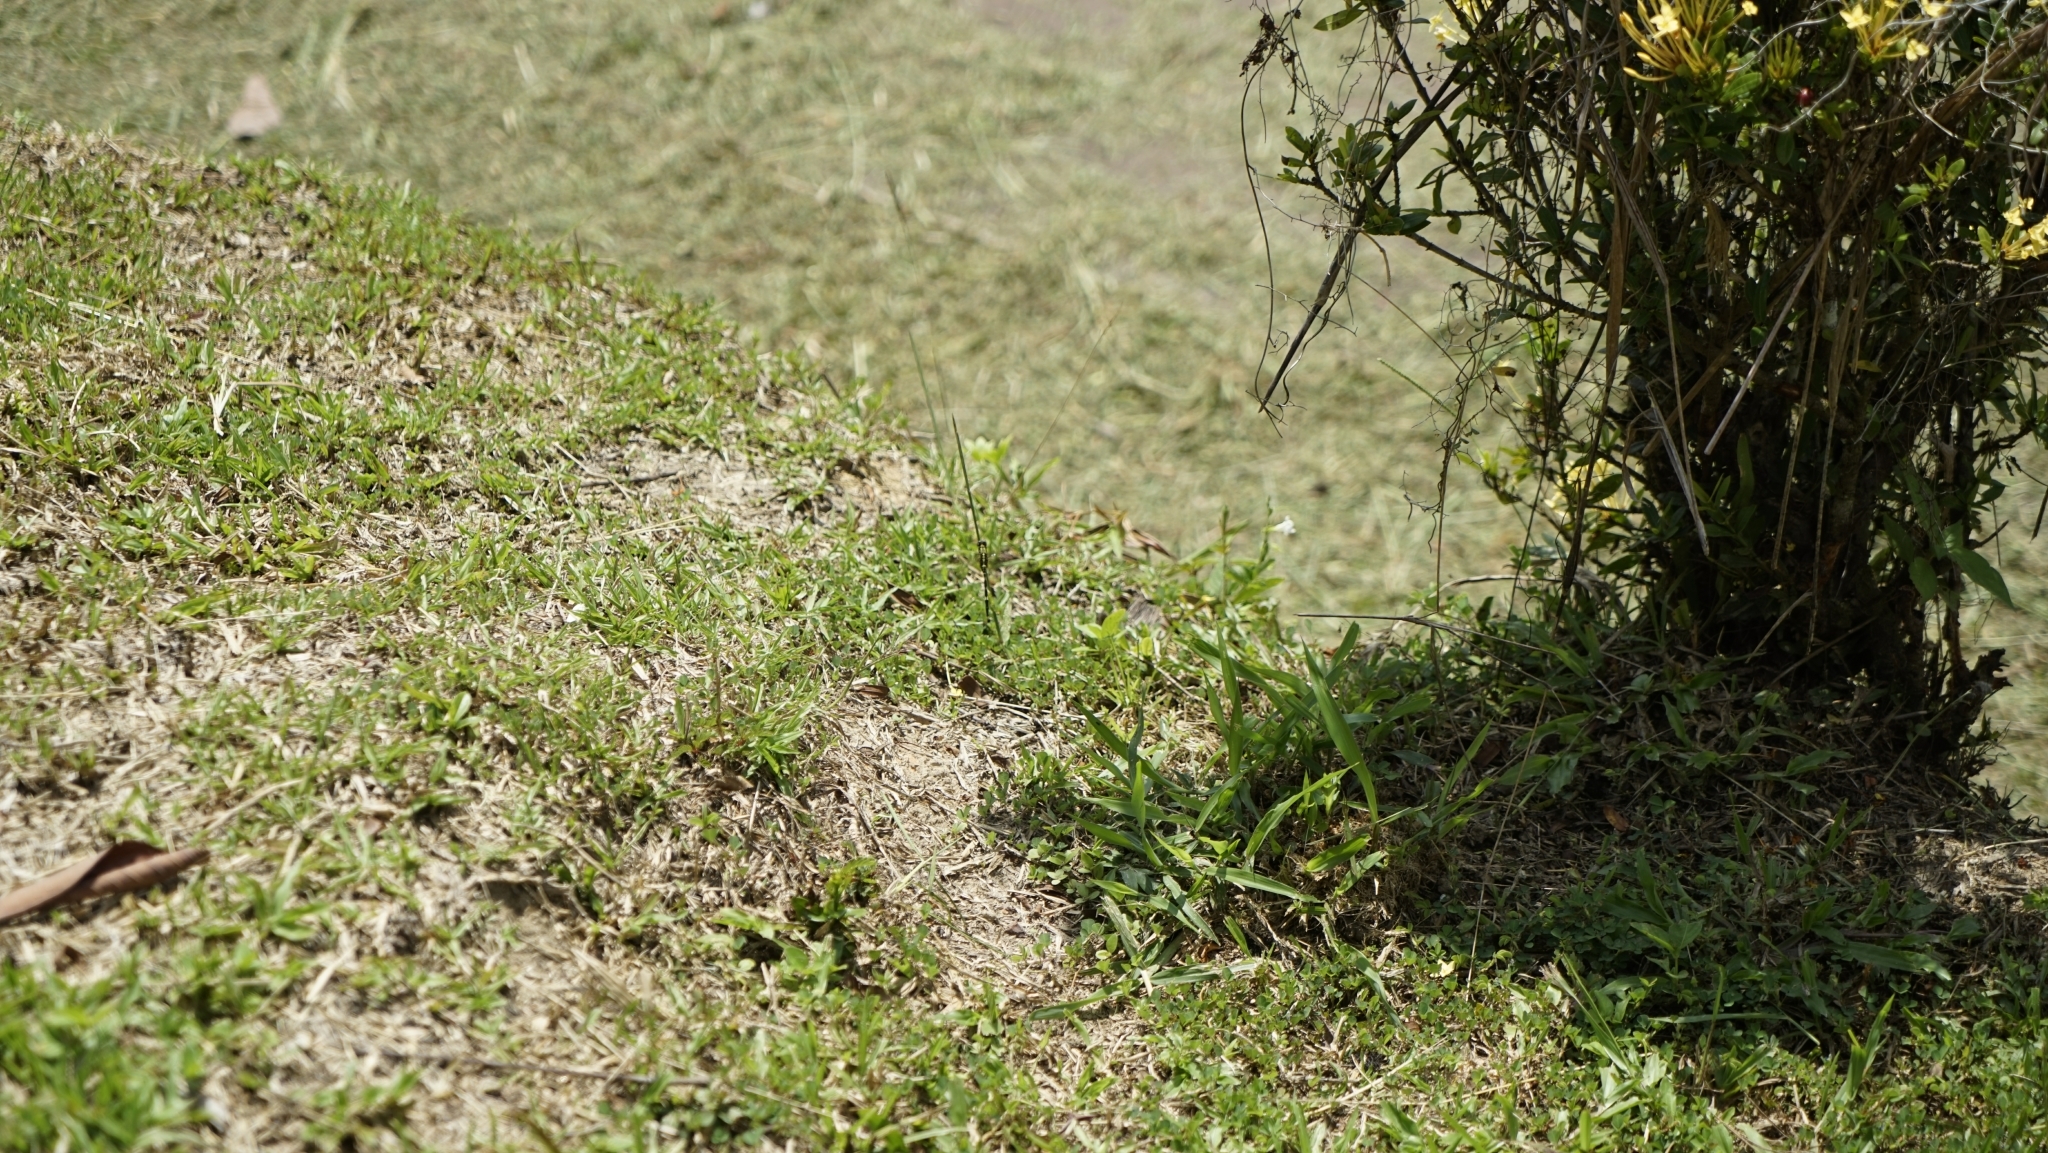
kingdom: Animalia
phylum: Arthropoda
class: Insecta
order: Odonata
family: Libellulidae
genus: Orthetrum
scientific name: Orthetrum sabina
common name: Slender skimmer
